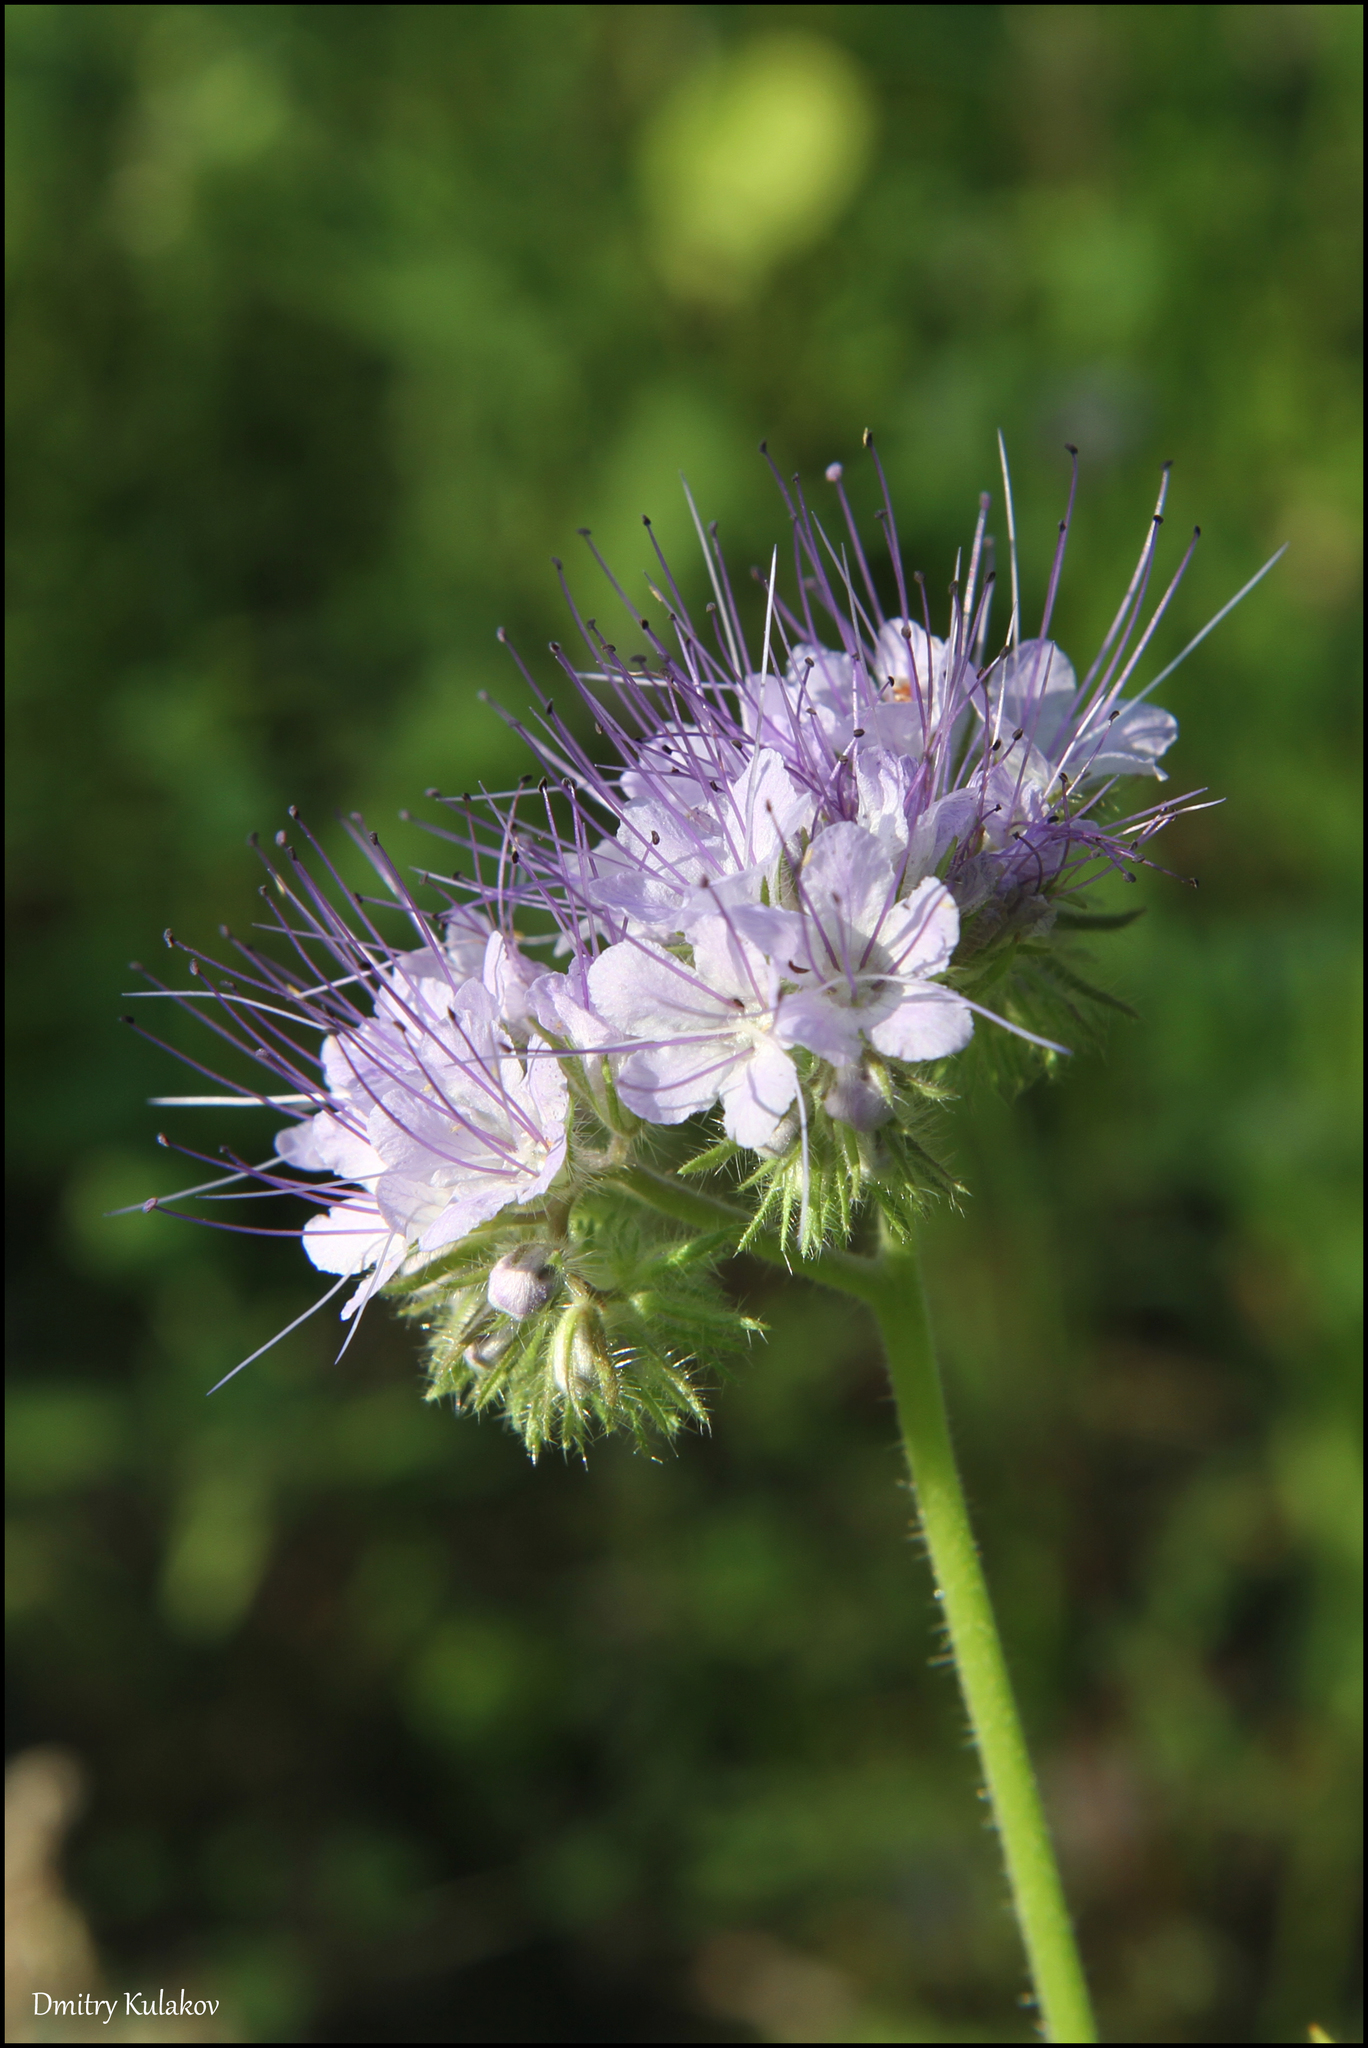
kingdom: Plantae
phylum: Tracheophyta
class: Magnoliopsida
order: Boraginales
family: Hydrophyllaceae
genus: Phacelia
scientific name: Phacelia tanacetifolia
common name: Phacelia
